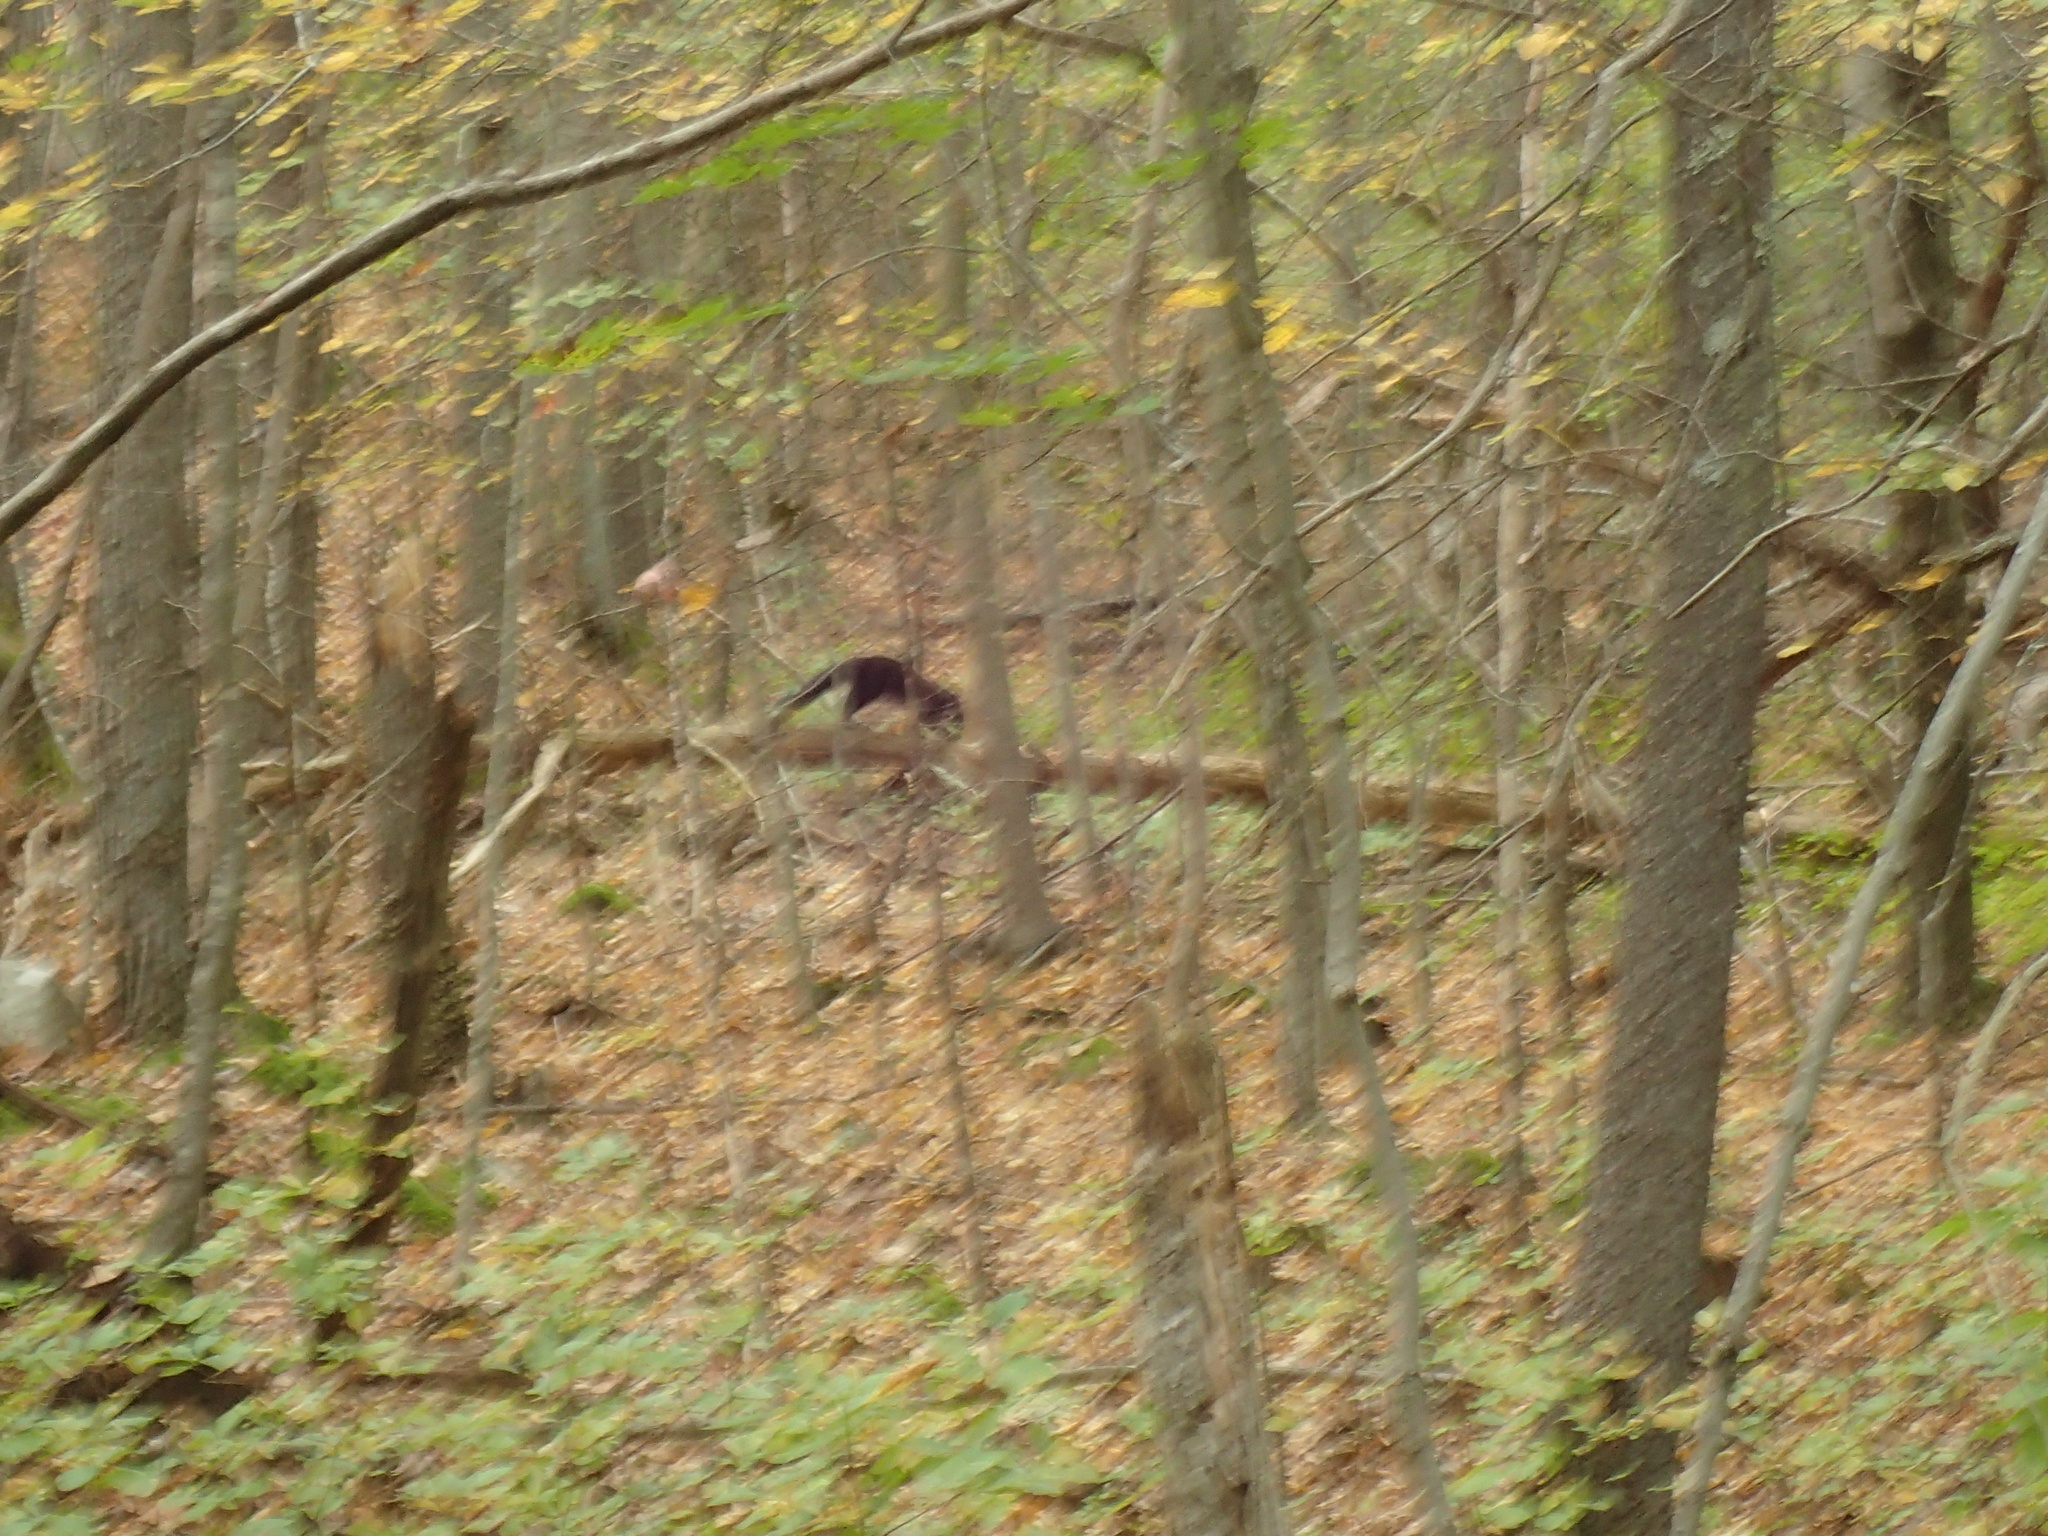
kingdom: Animalia
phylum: Chordata
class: Mammalia
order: Carnivora
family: Mustelidae
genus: Pekania
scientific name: Pekania pennanti
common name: Fisher
